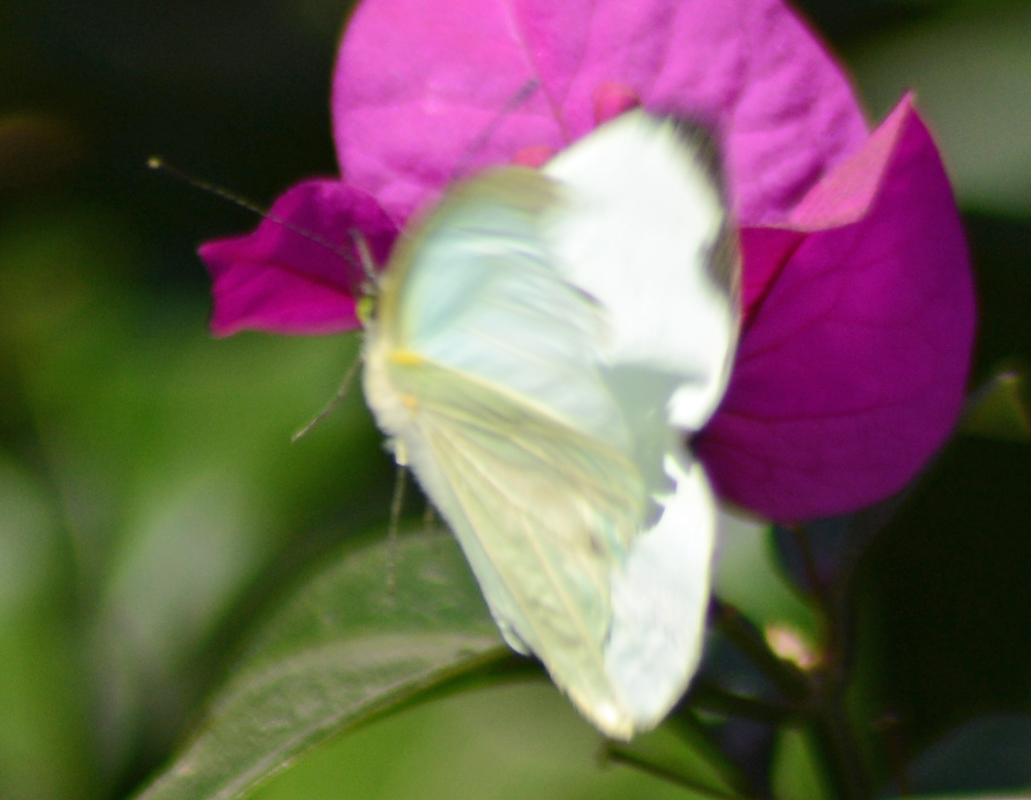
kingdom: Animalia
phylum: Arthropoda
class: Insecta
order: Lepidoptera
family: Pieridae
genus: Leptophobia
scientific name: Leptophobia aripa
